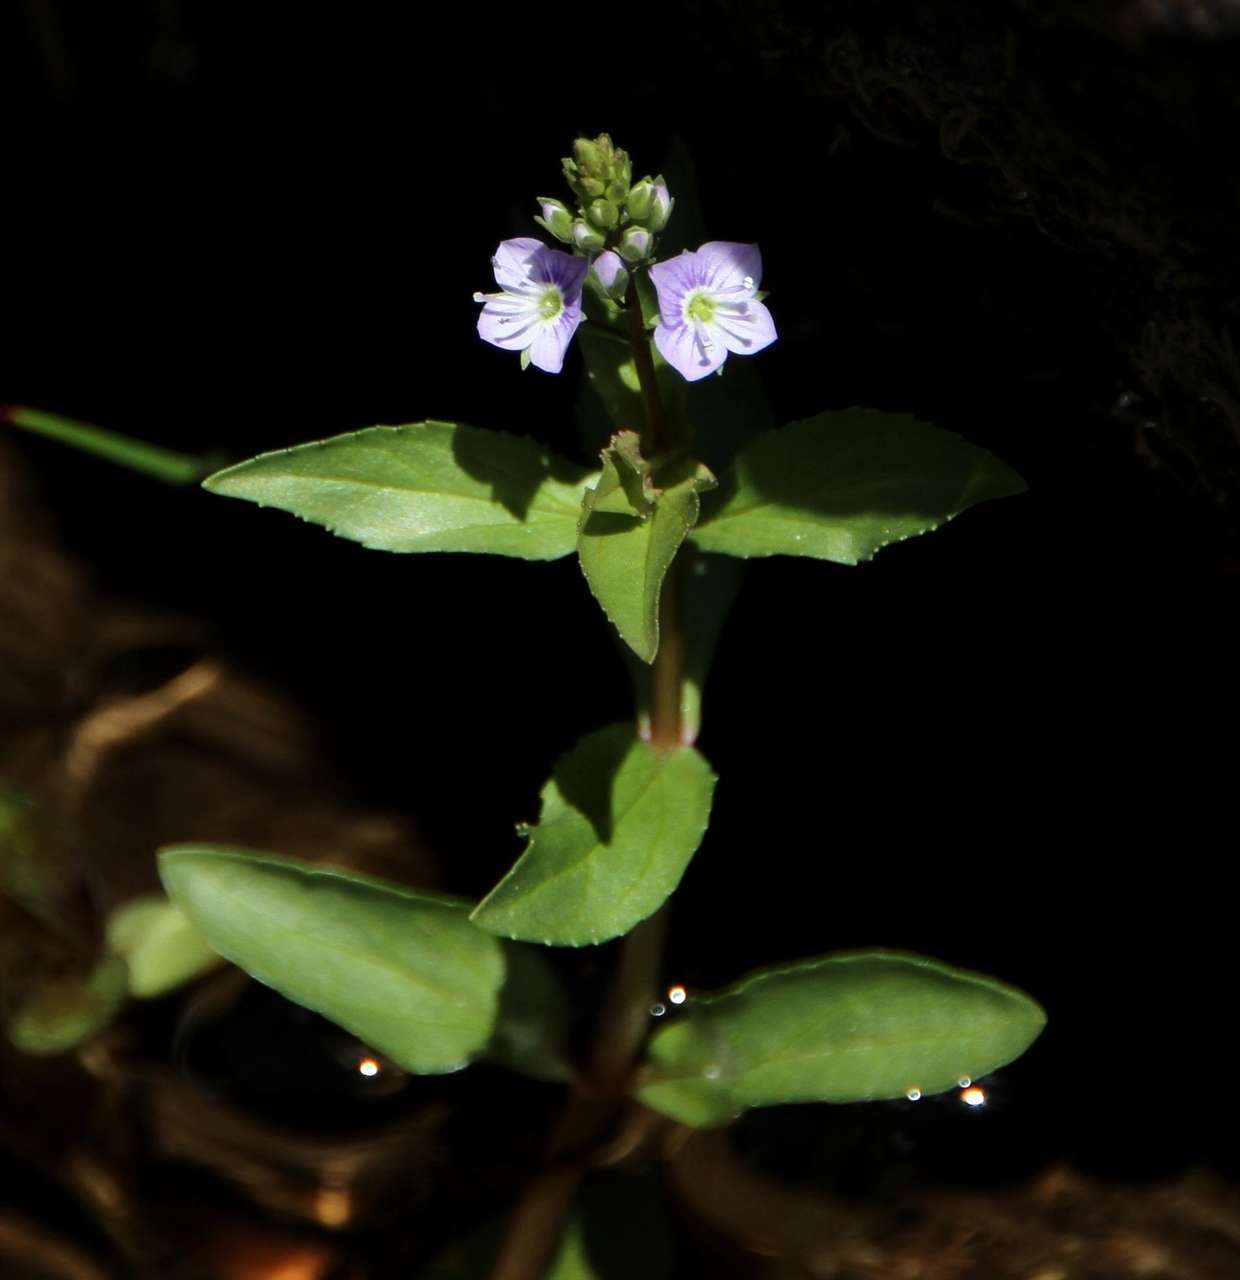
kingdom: Plantae
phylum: Tracheophyta
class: Magnoliopsida
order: Lamiales
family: Plantaginaceae
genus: Veronica
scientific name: Veronica anagallis-aquatica
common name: Water speedwell
